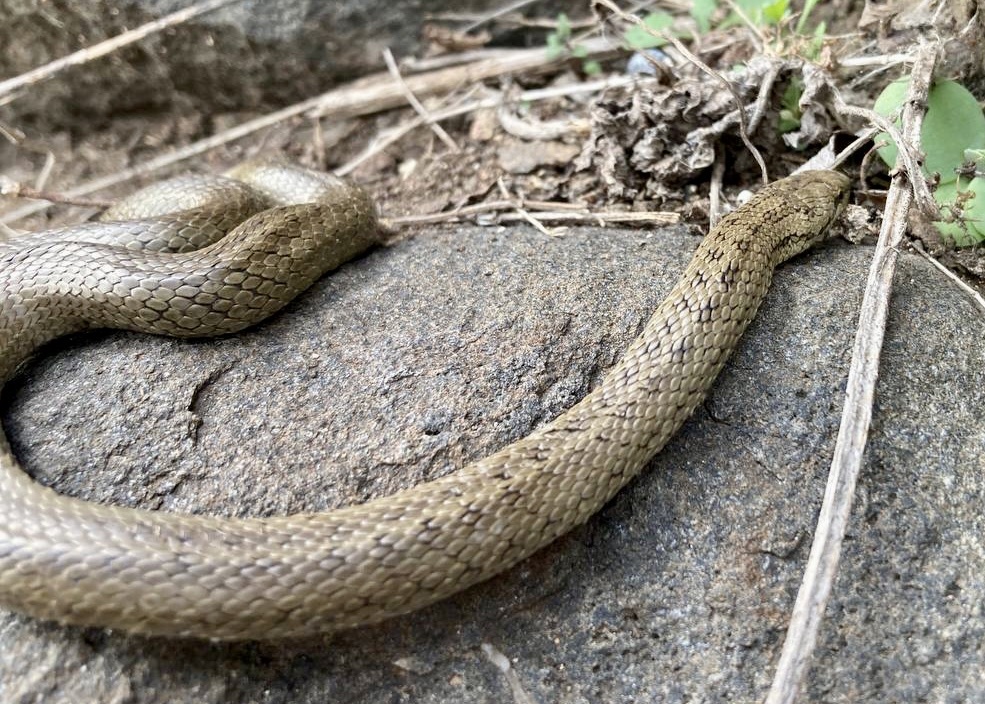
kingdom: Animalia
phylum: Chordata
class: Squamata
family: Colubridae
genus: Coronella
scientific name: Coronella austriaca
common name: Smooth snake
